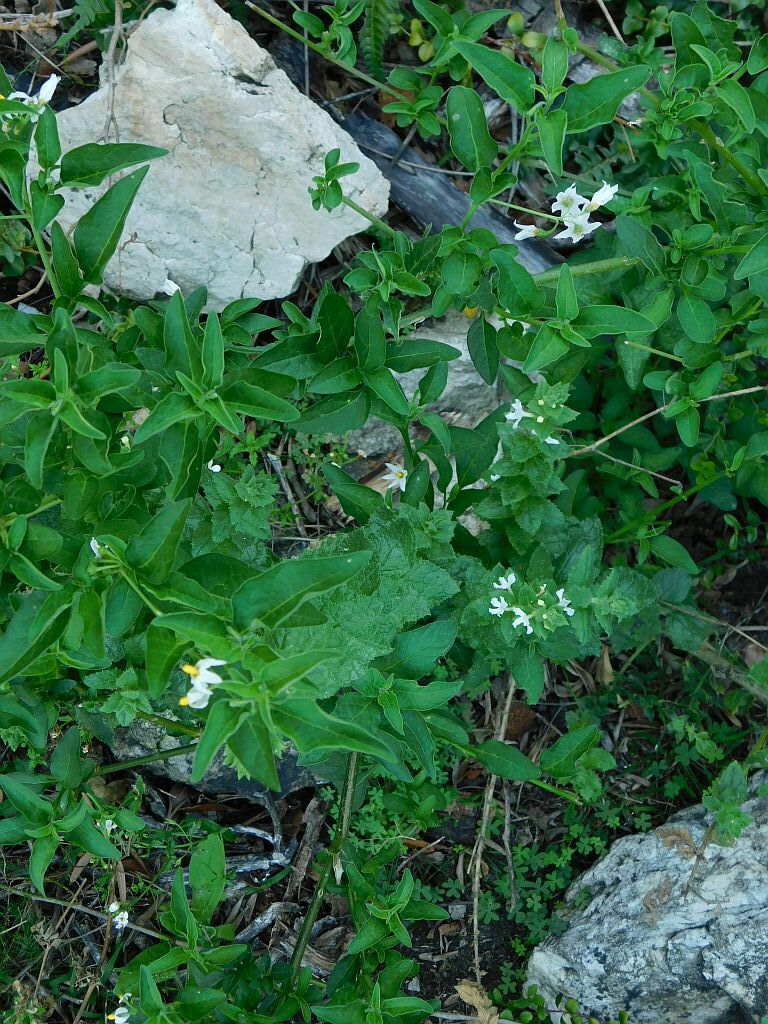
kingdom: Plantae
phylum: Tracheophyta
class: Magnoliopsida
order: Solanales
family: Solanaceae
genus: Solanum
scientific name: Solanum chenopodioides
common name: Tall nightshade
